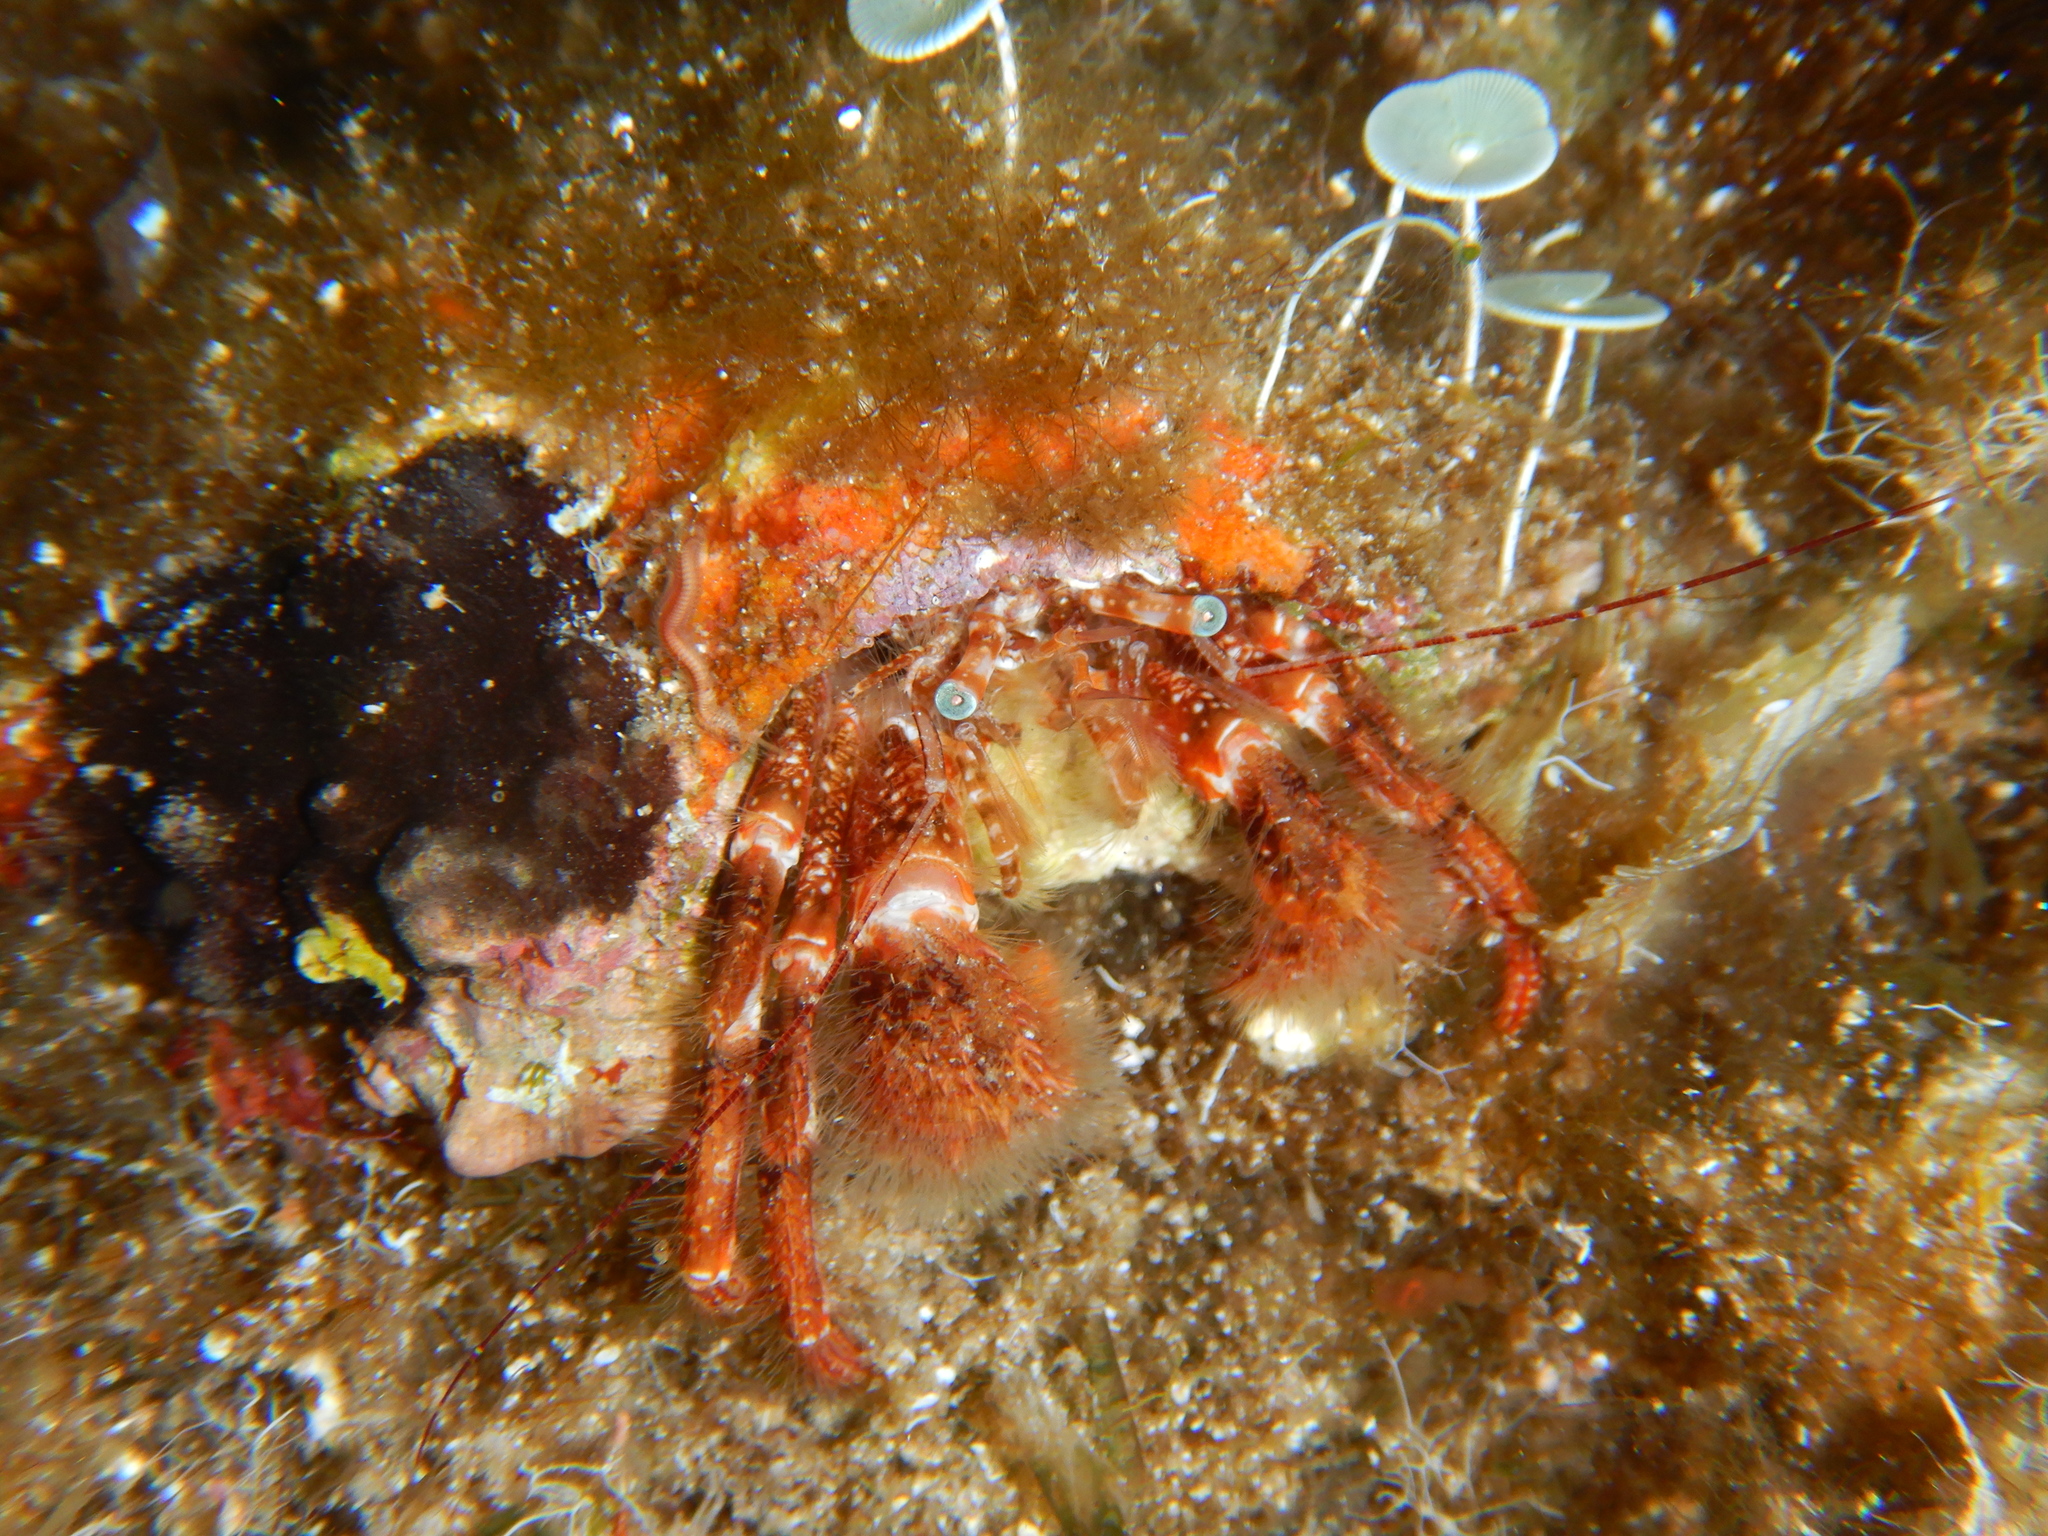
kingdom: Animalia
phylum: Arthropoda
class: Malacostraca
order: Decapoda
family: Paguridae
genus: Pagurus
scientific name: Pagurus cuanensis
